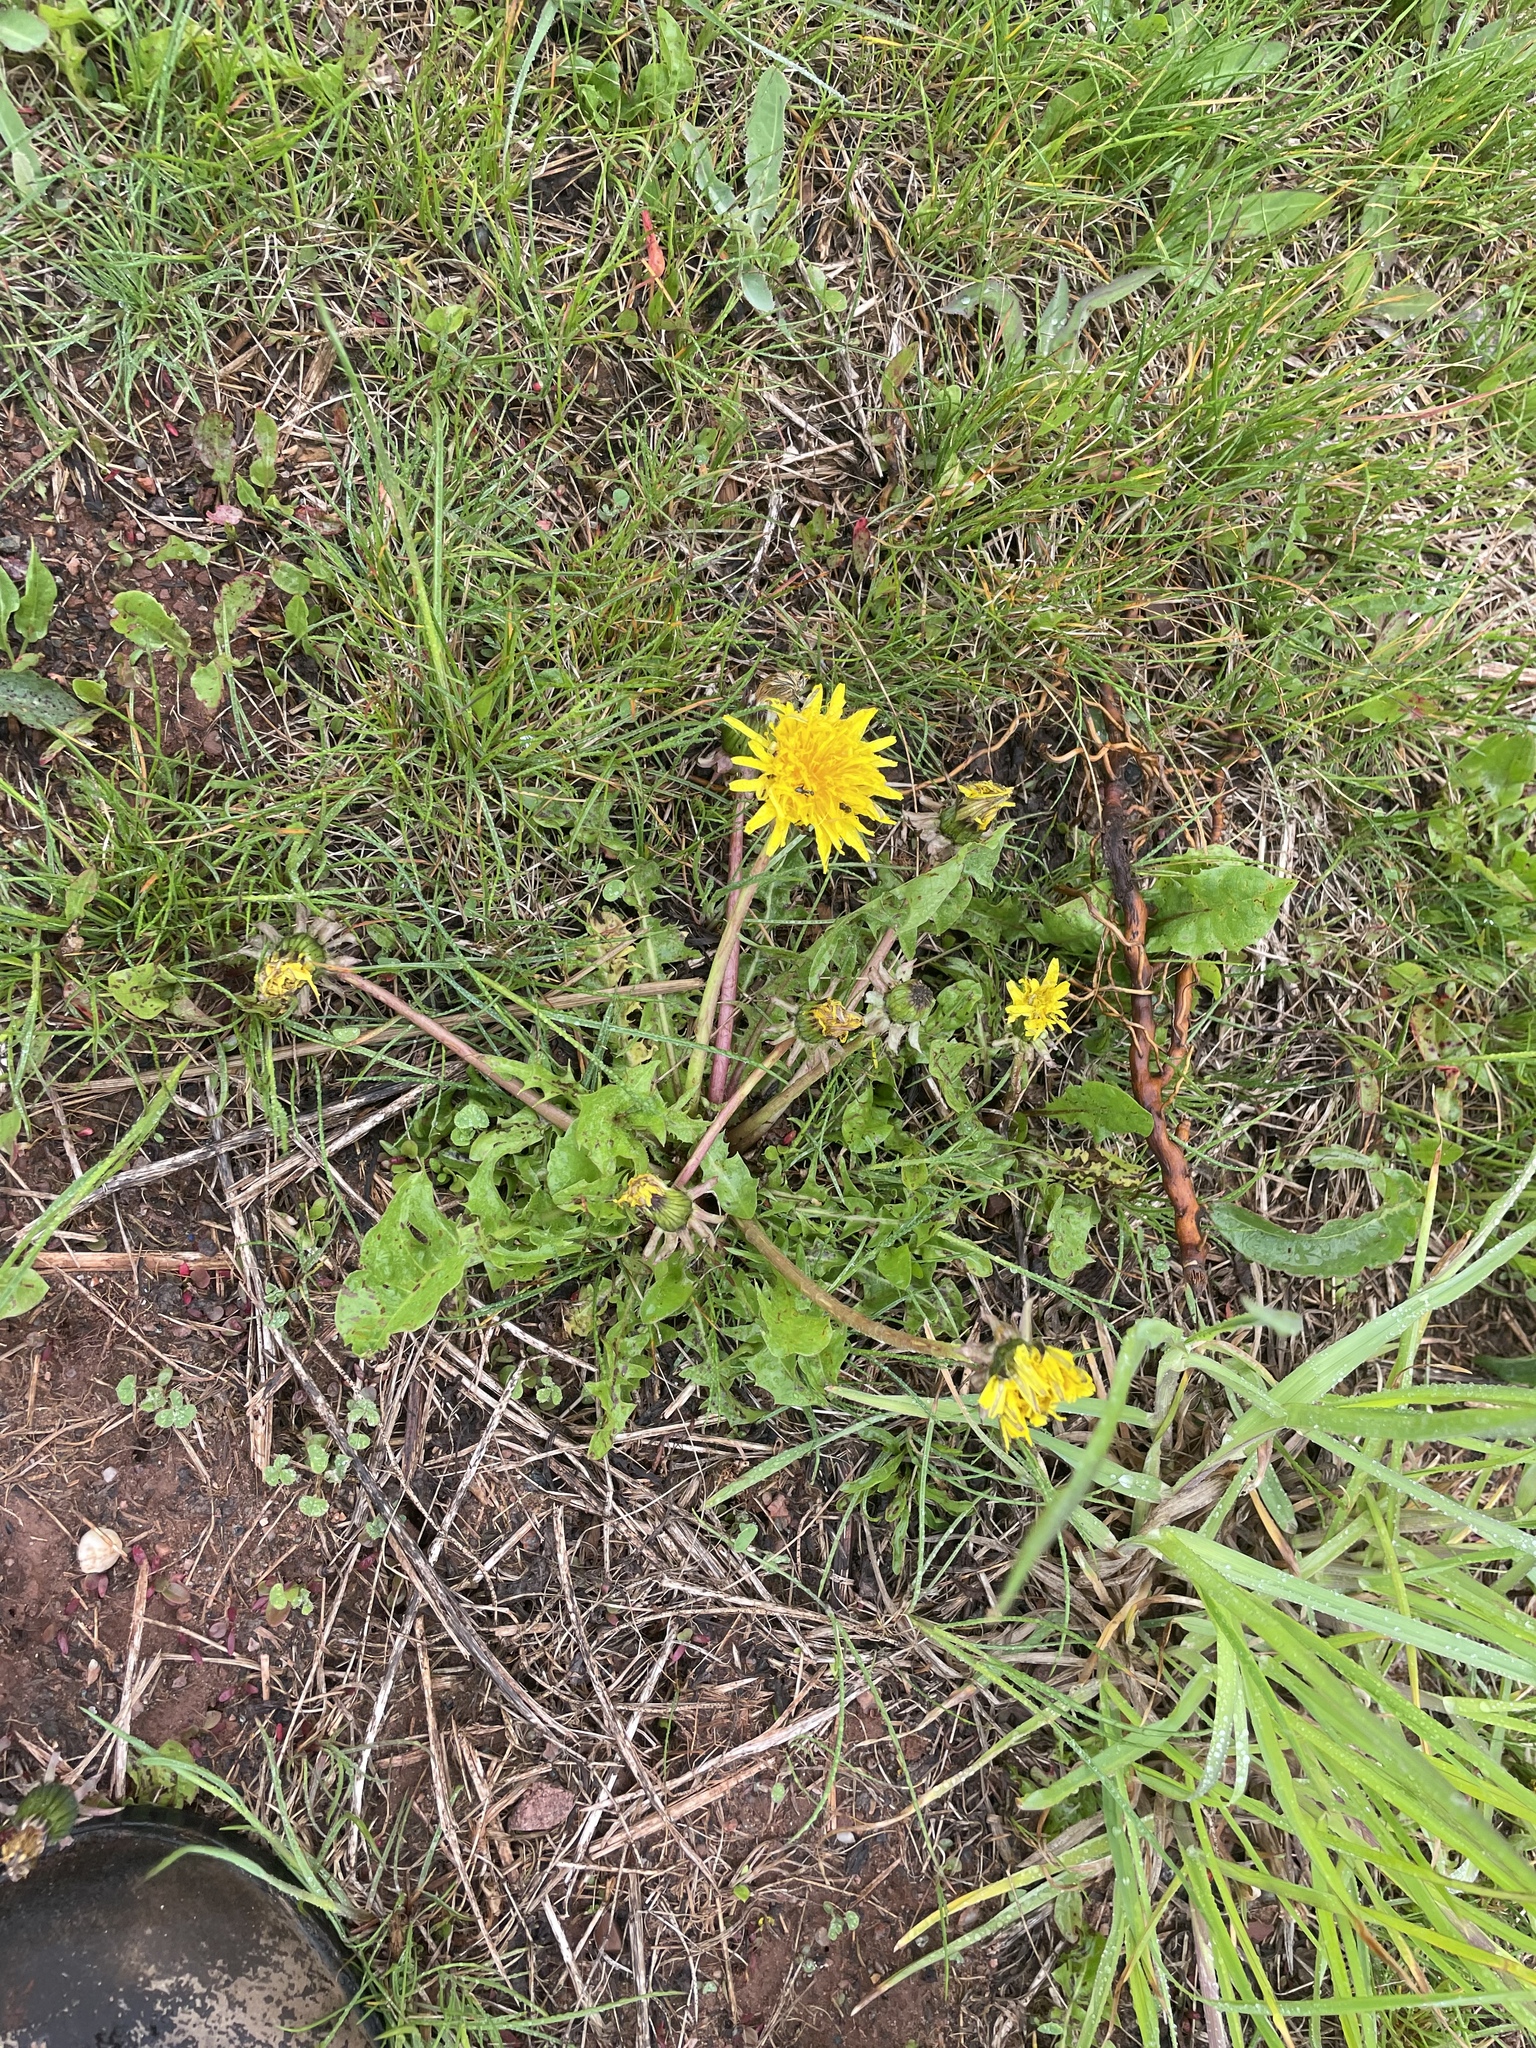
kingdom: Plantae
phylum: Tracheophyta
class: Magnoliopsida
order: Asterales
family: Asteraceae
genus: Taraxacum
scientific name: Taraxacum officinale
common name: Common dandelion
